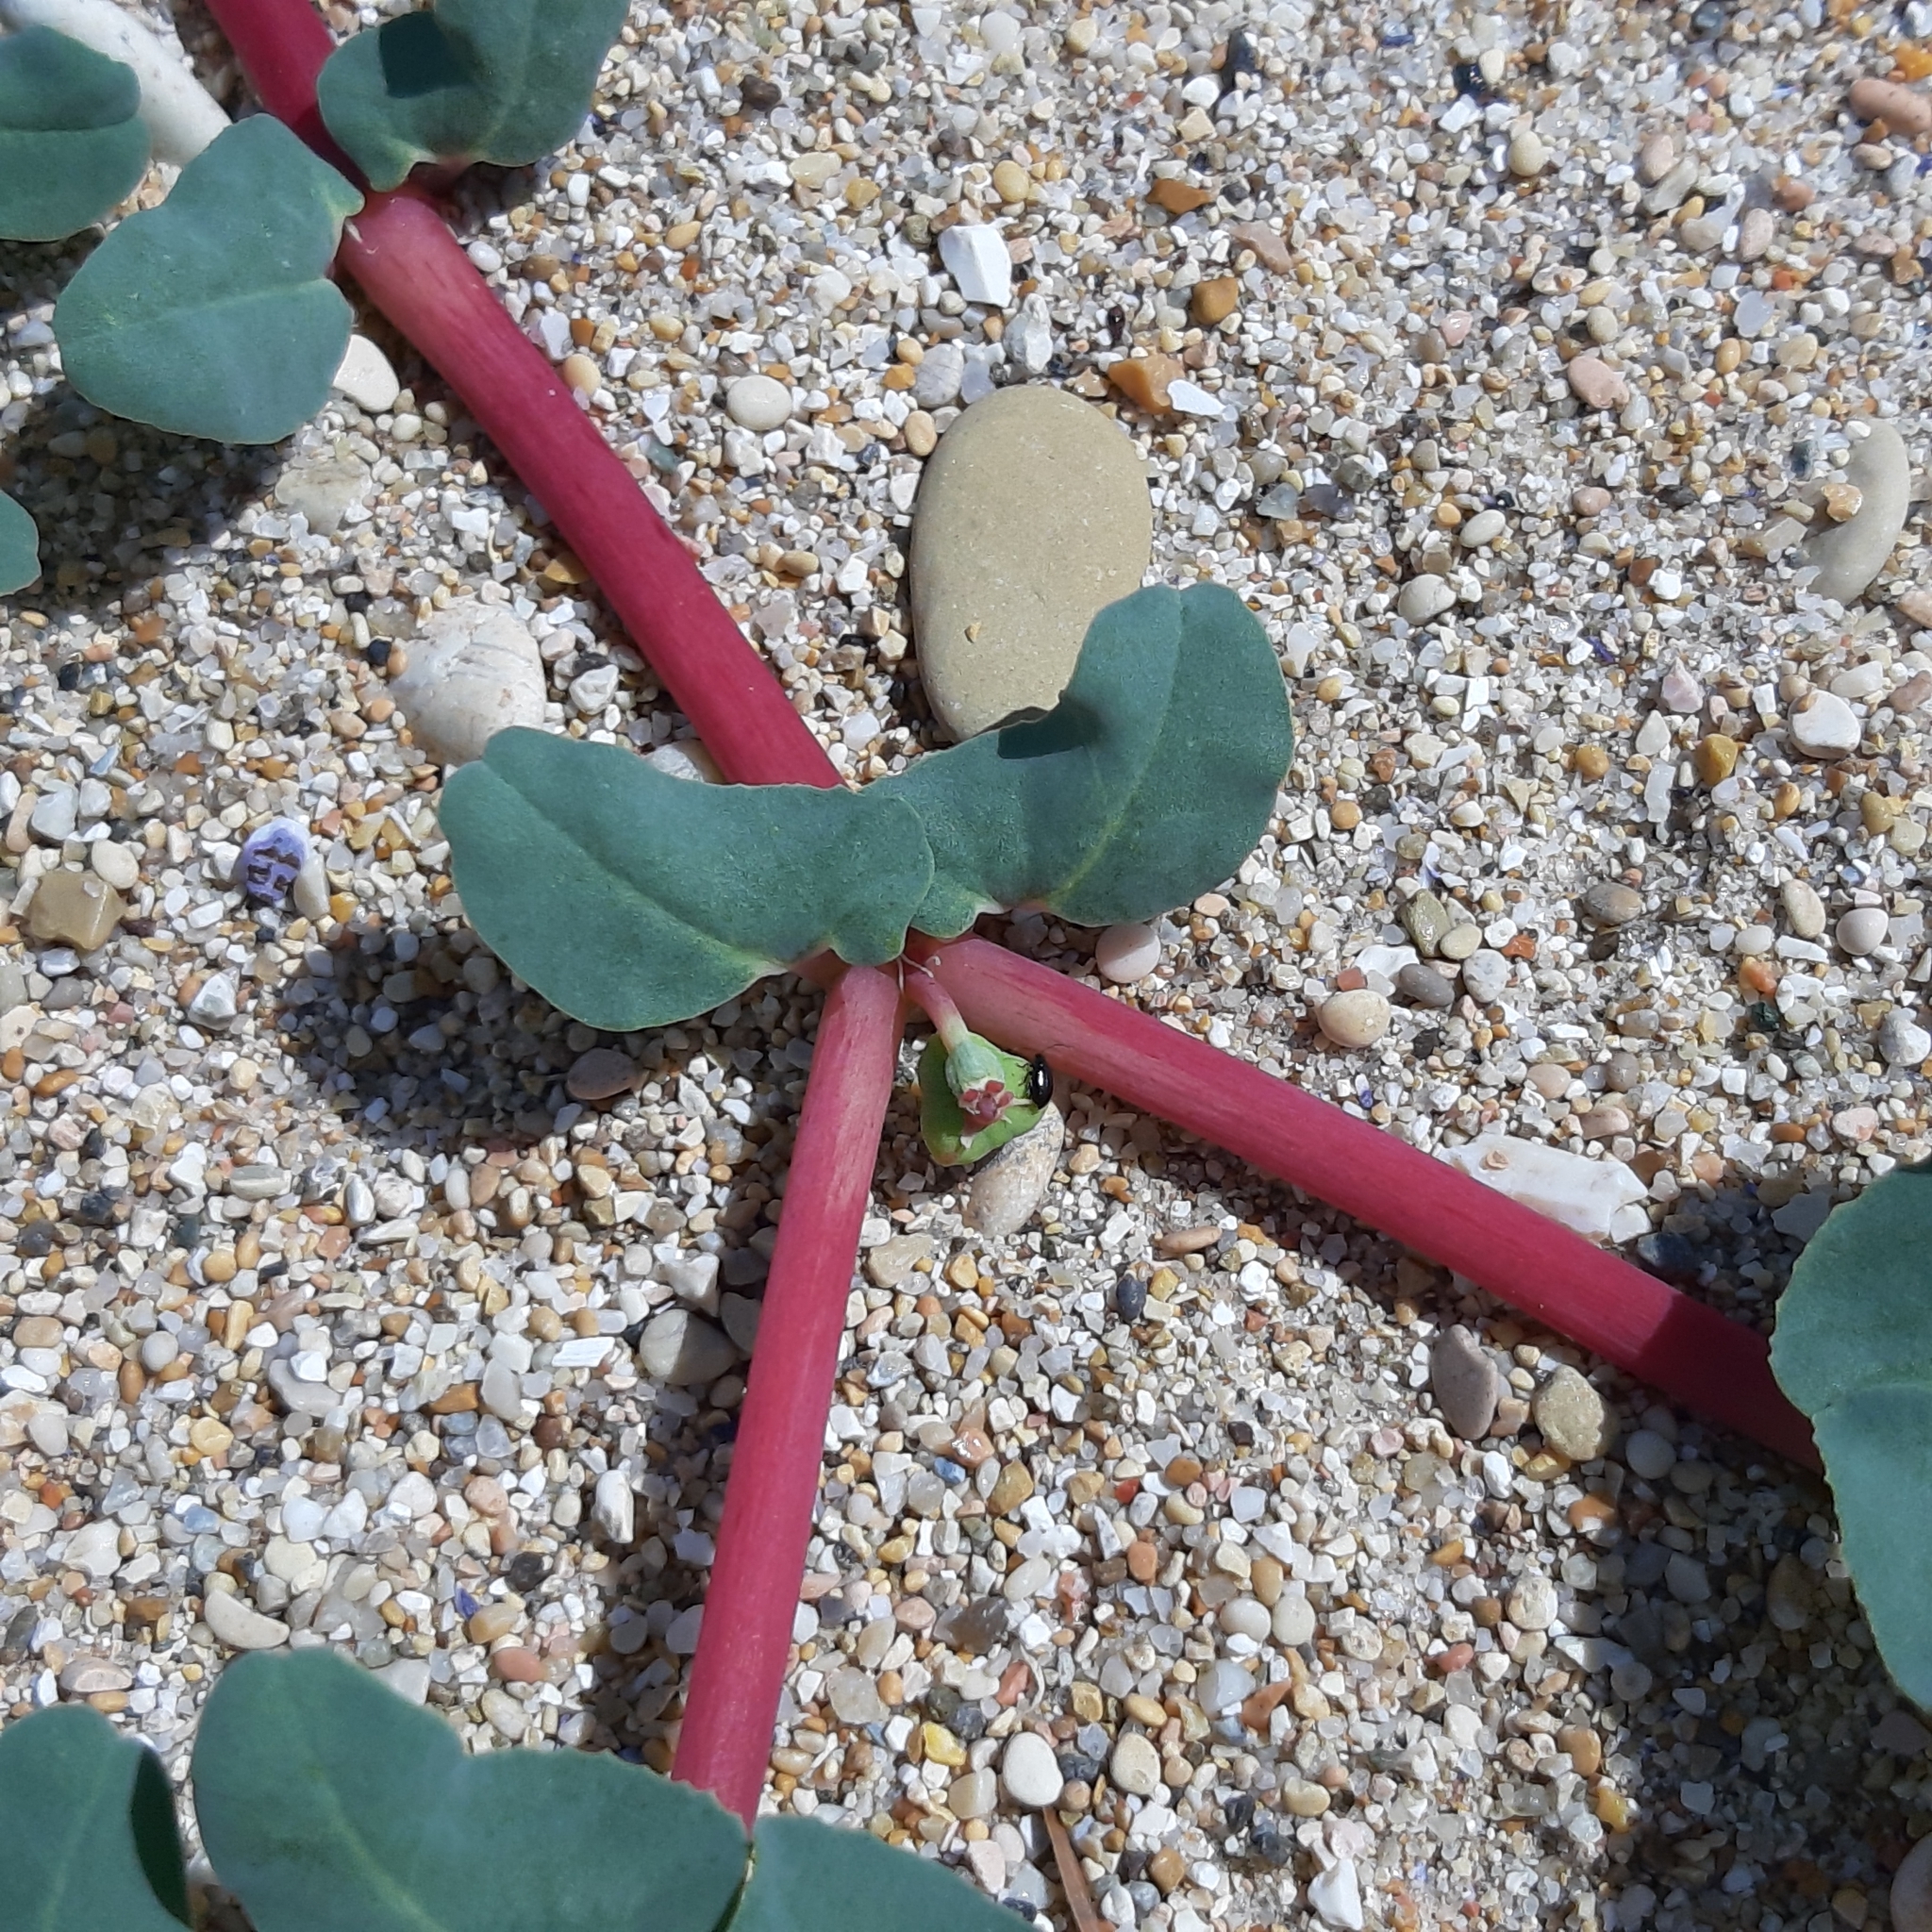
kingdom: Plantae
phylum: Tracheophyta
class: Magnoliopsida
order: Malpighiales
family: Euphorbiaceae
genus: Euphorbia
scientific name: Euphorbia peplis
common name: Purple spurge
